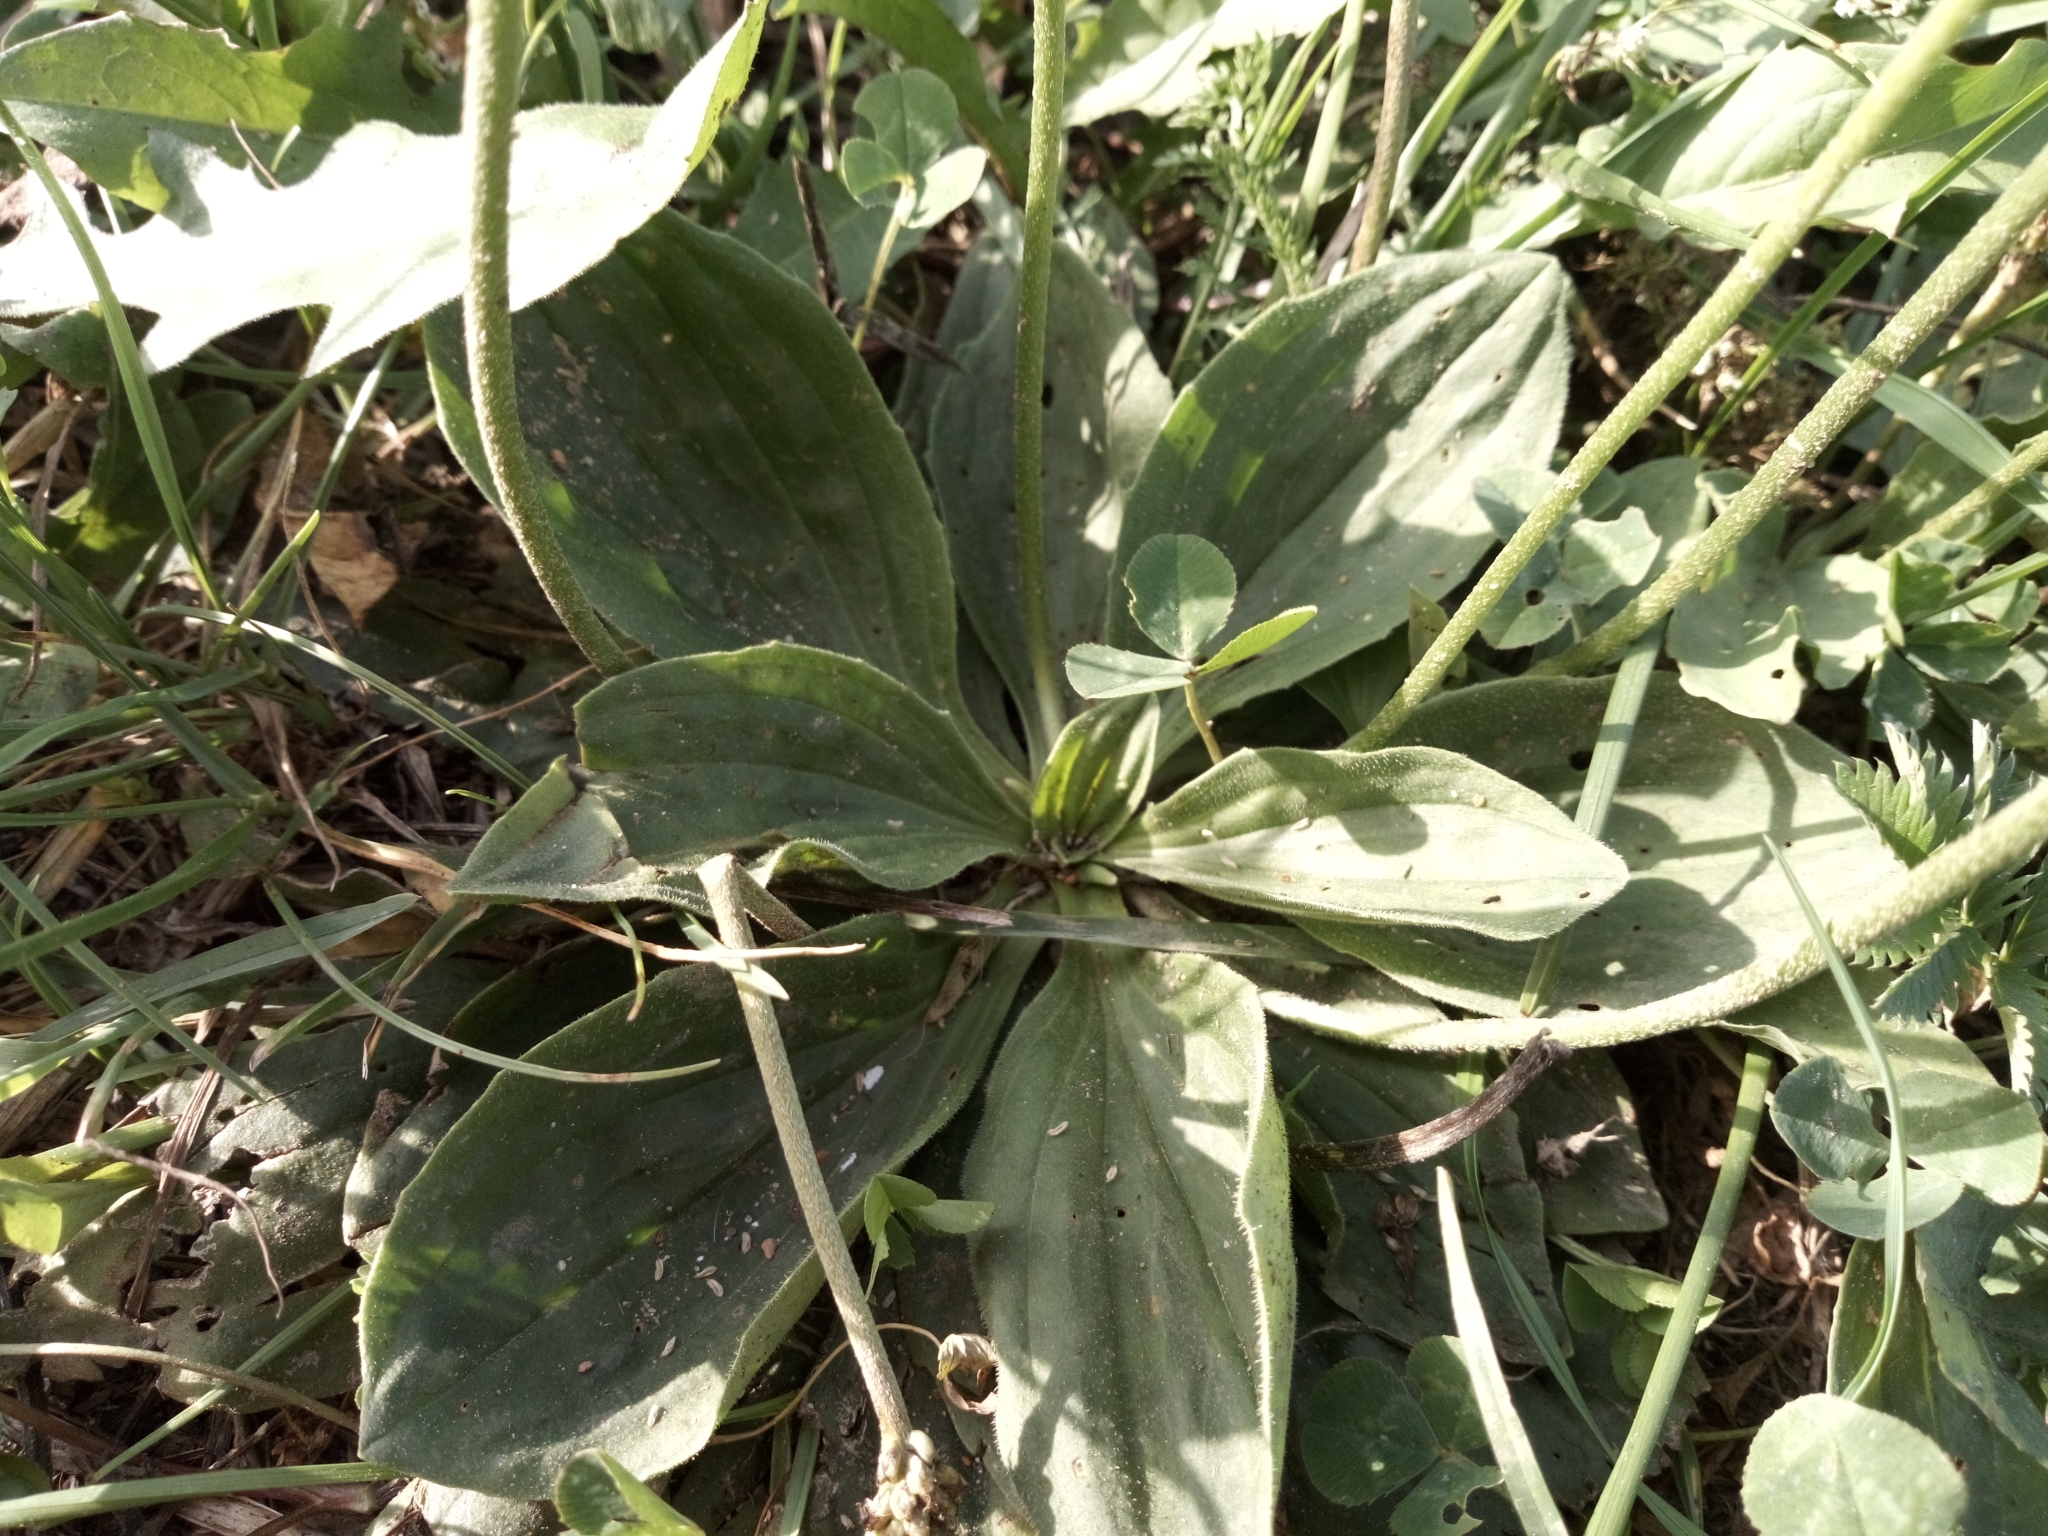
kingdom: Plantae
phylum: Tracheophyta
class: Magnoliopsida
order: Lamiales
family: Plantaginaceae
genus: Plantago
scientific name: Plantago media
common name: Hoary plantain
